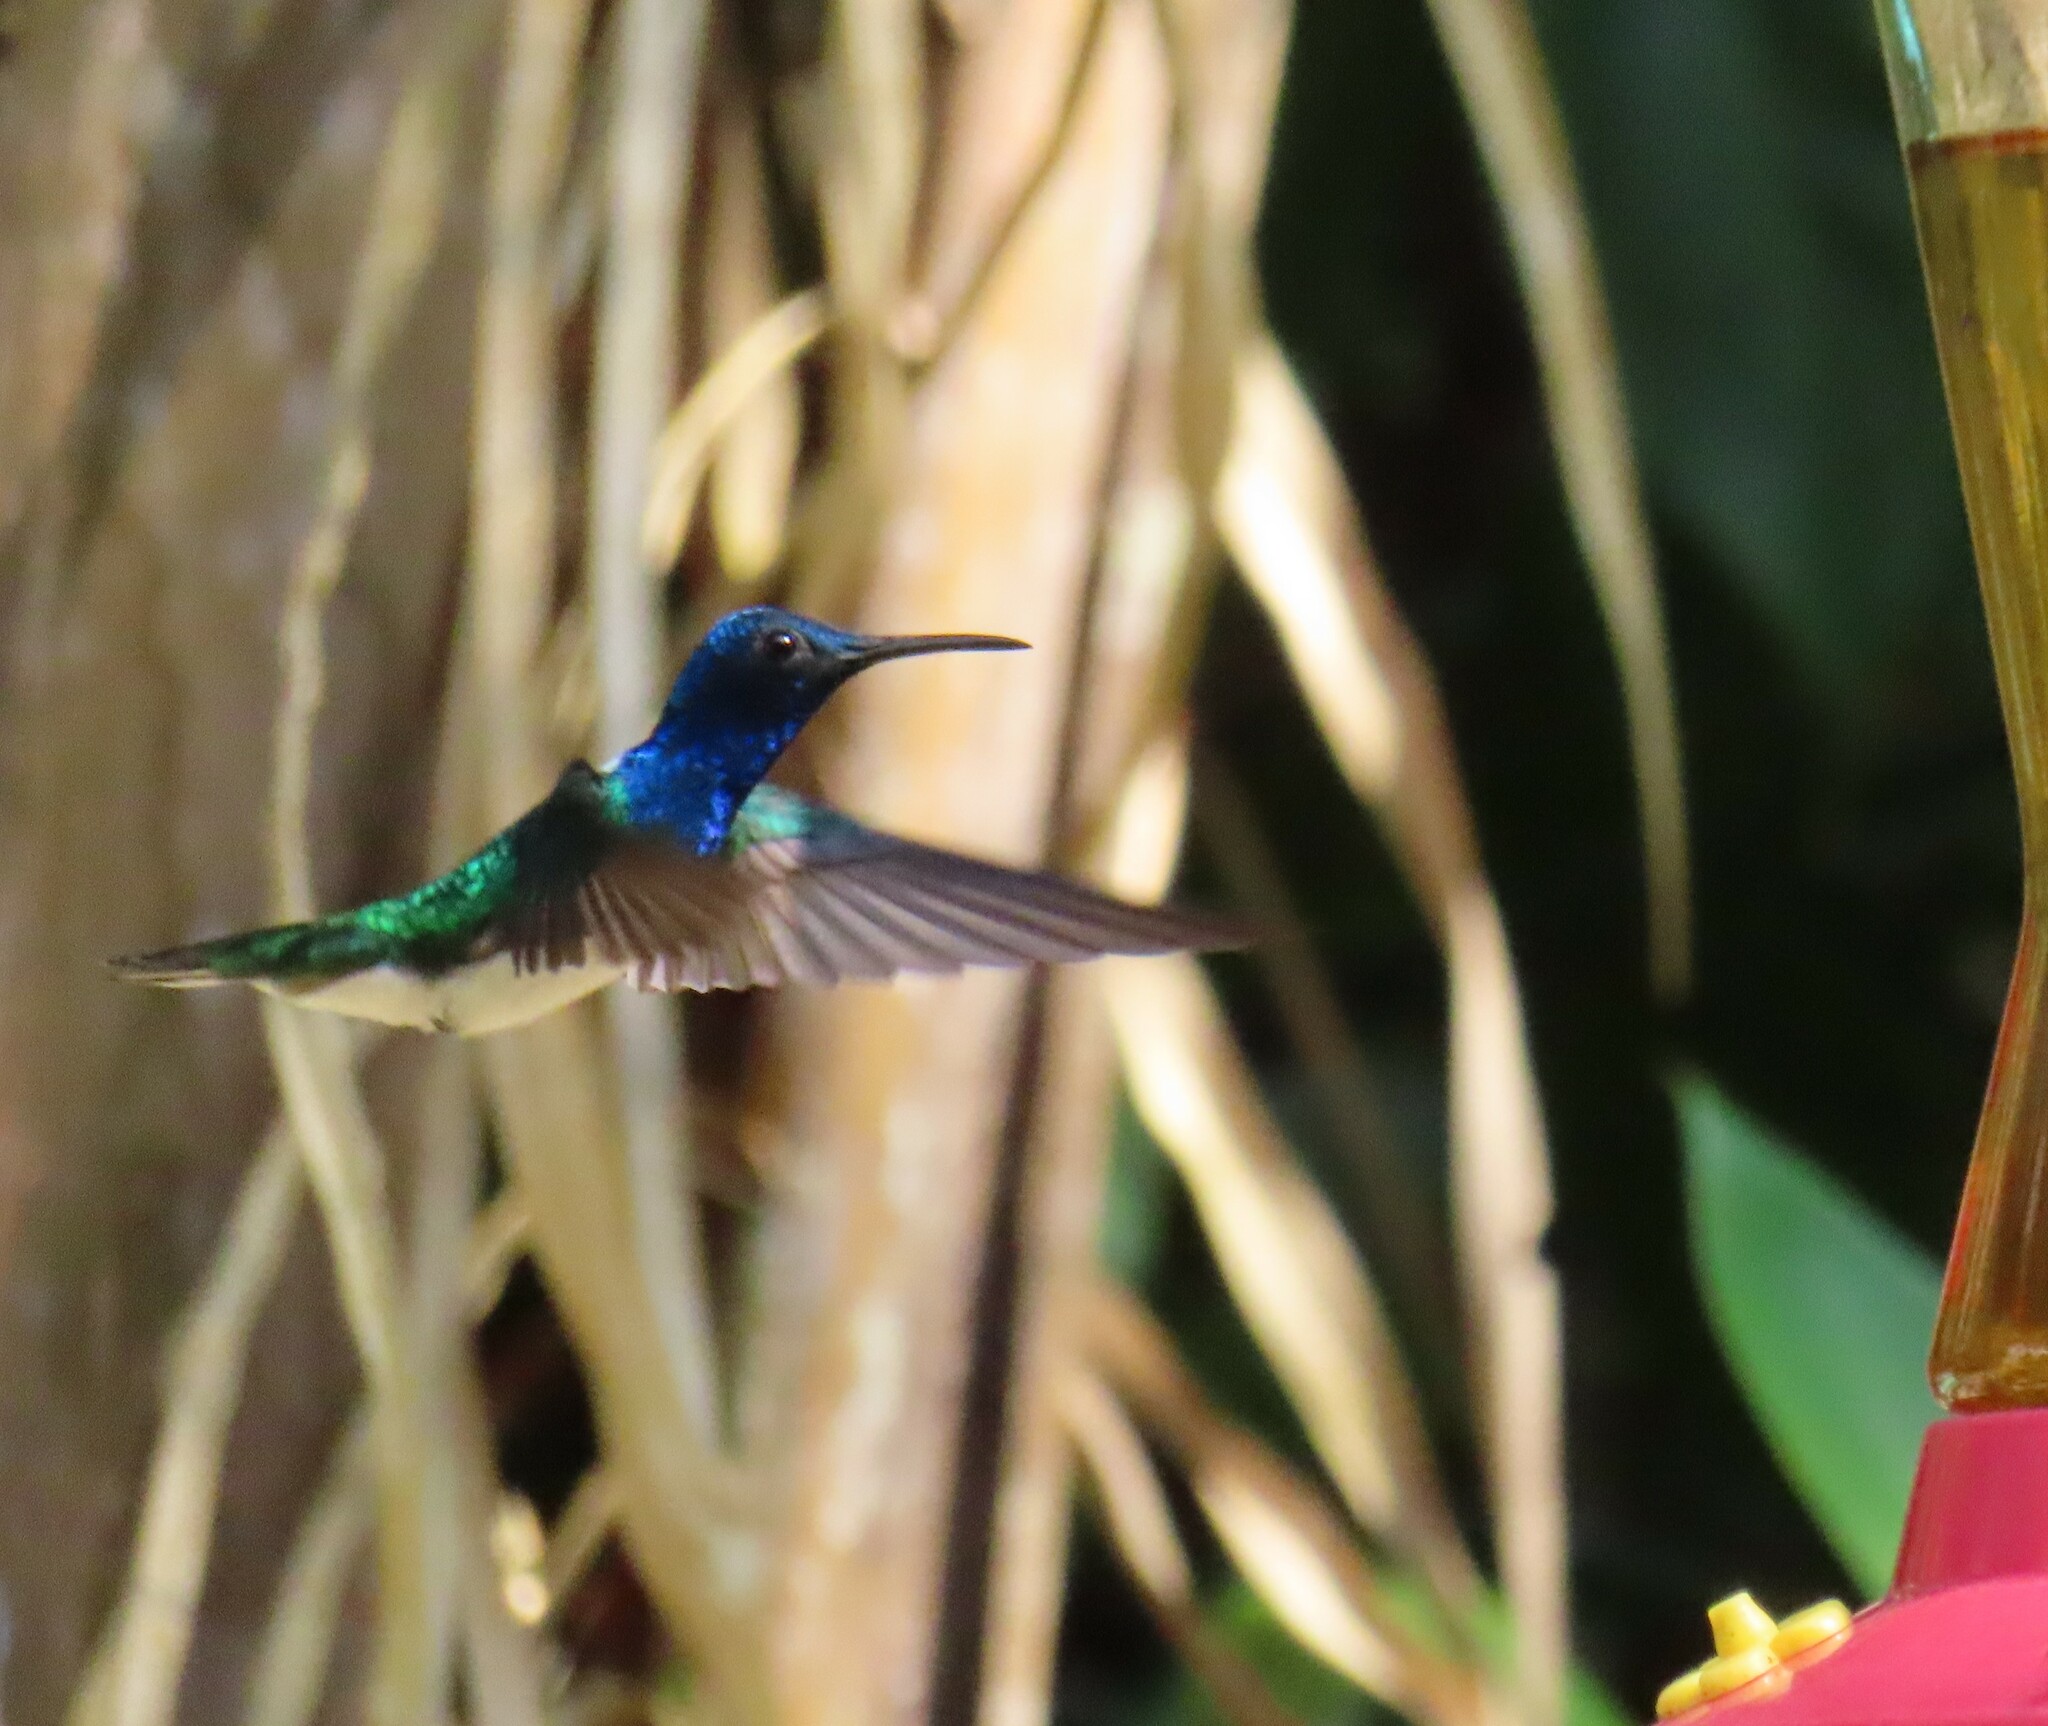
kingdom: Animalia
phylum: Chordata
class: Aves
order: Apodiformes
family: Trochilidae
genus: Florisuga
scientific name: Florisuga mellivora
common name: White-necked jacobin
